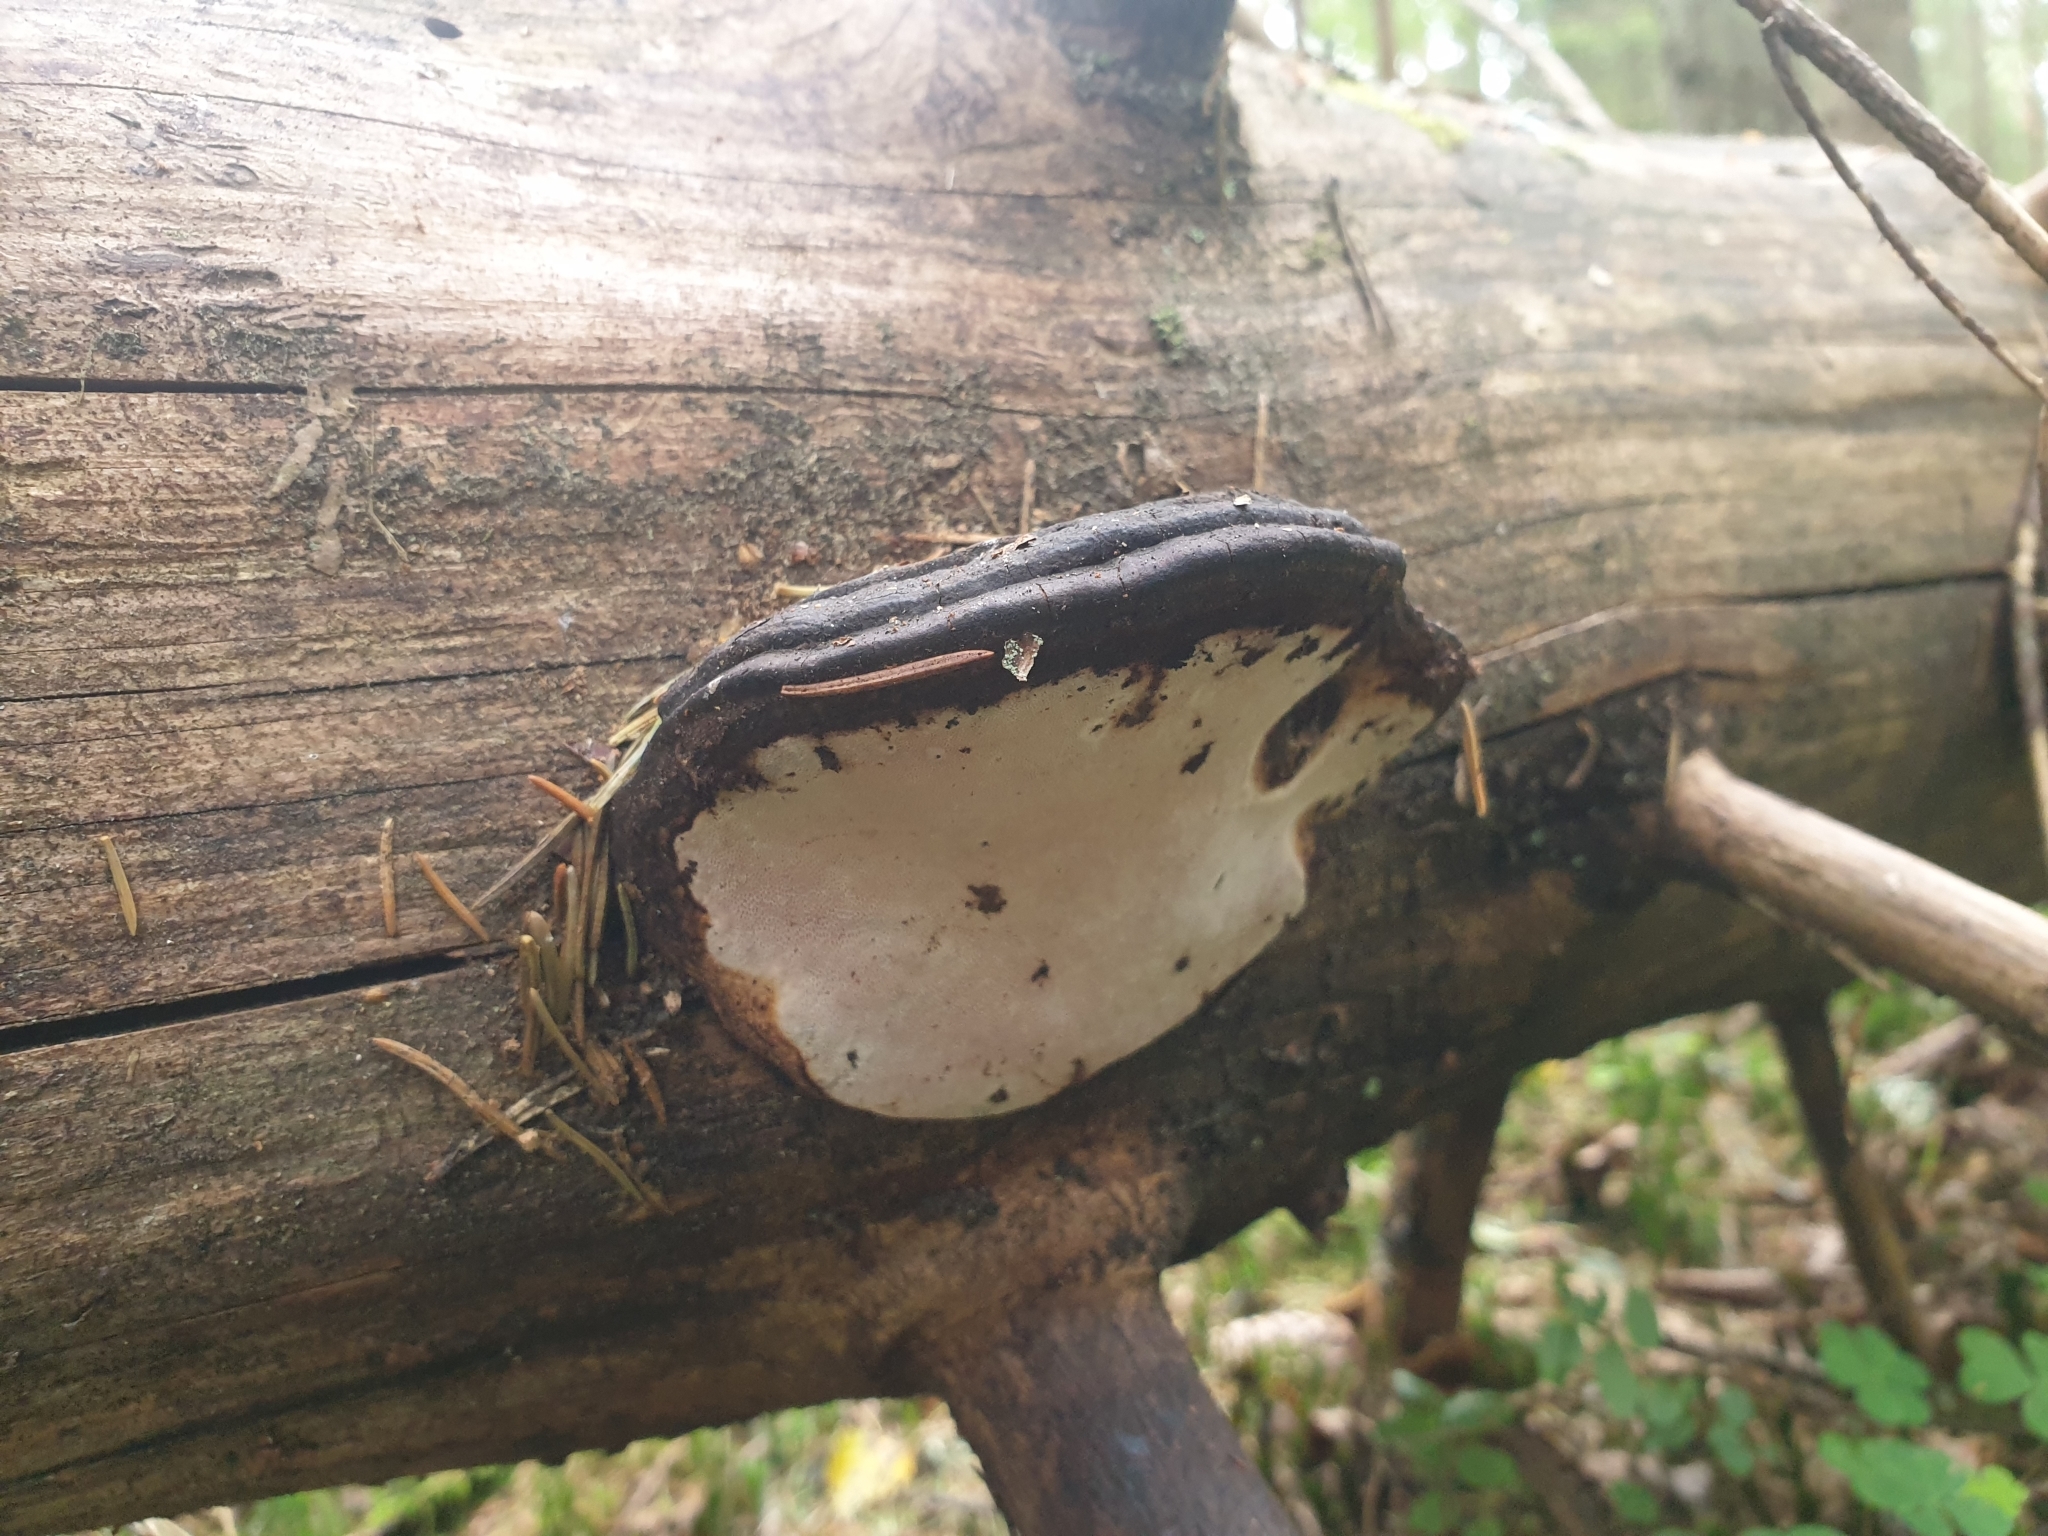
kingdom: Fungi
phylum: Basidiomycota
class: Agaricomycetes
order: Polyporales
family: Fomitopsidaceae
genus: Rhodofomes
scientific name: Rhodofomes roseus
